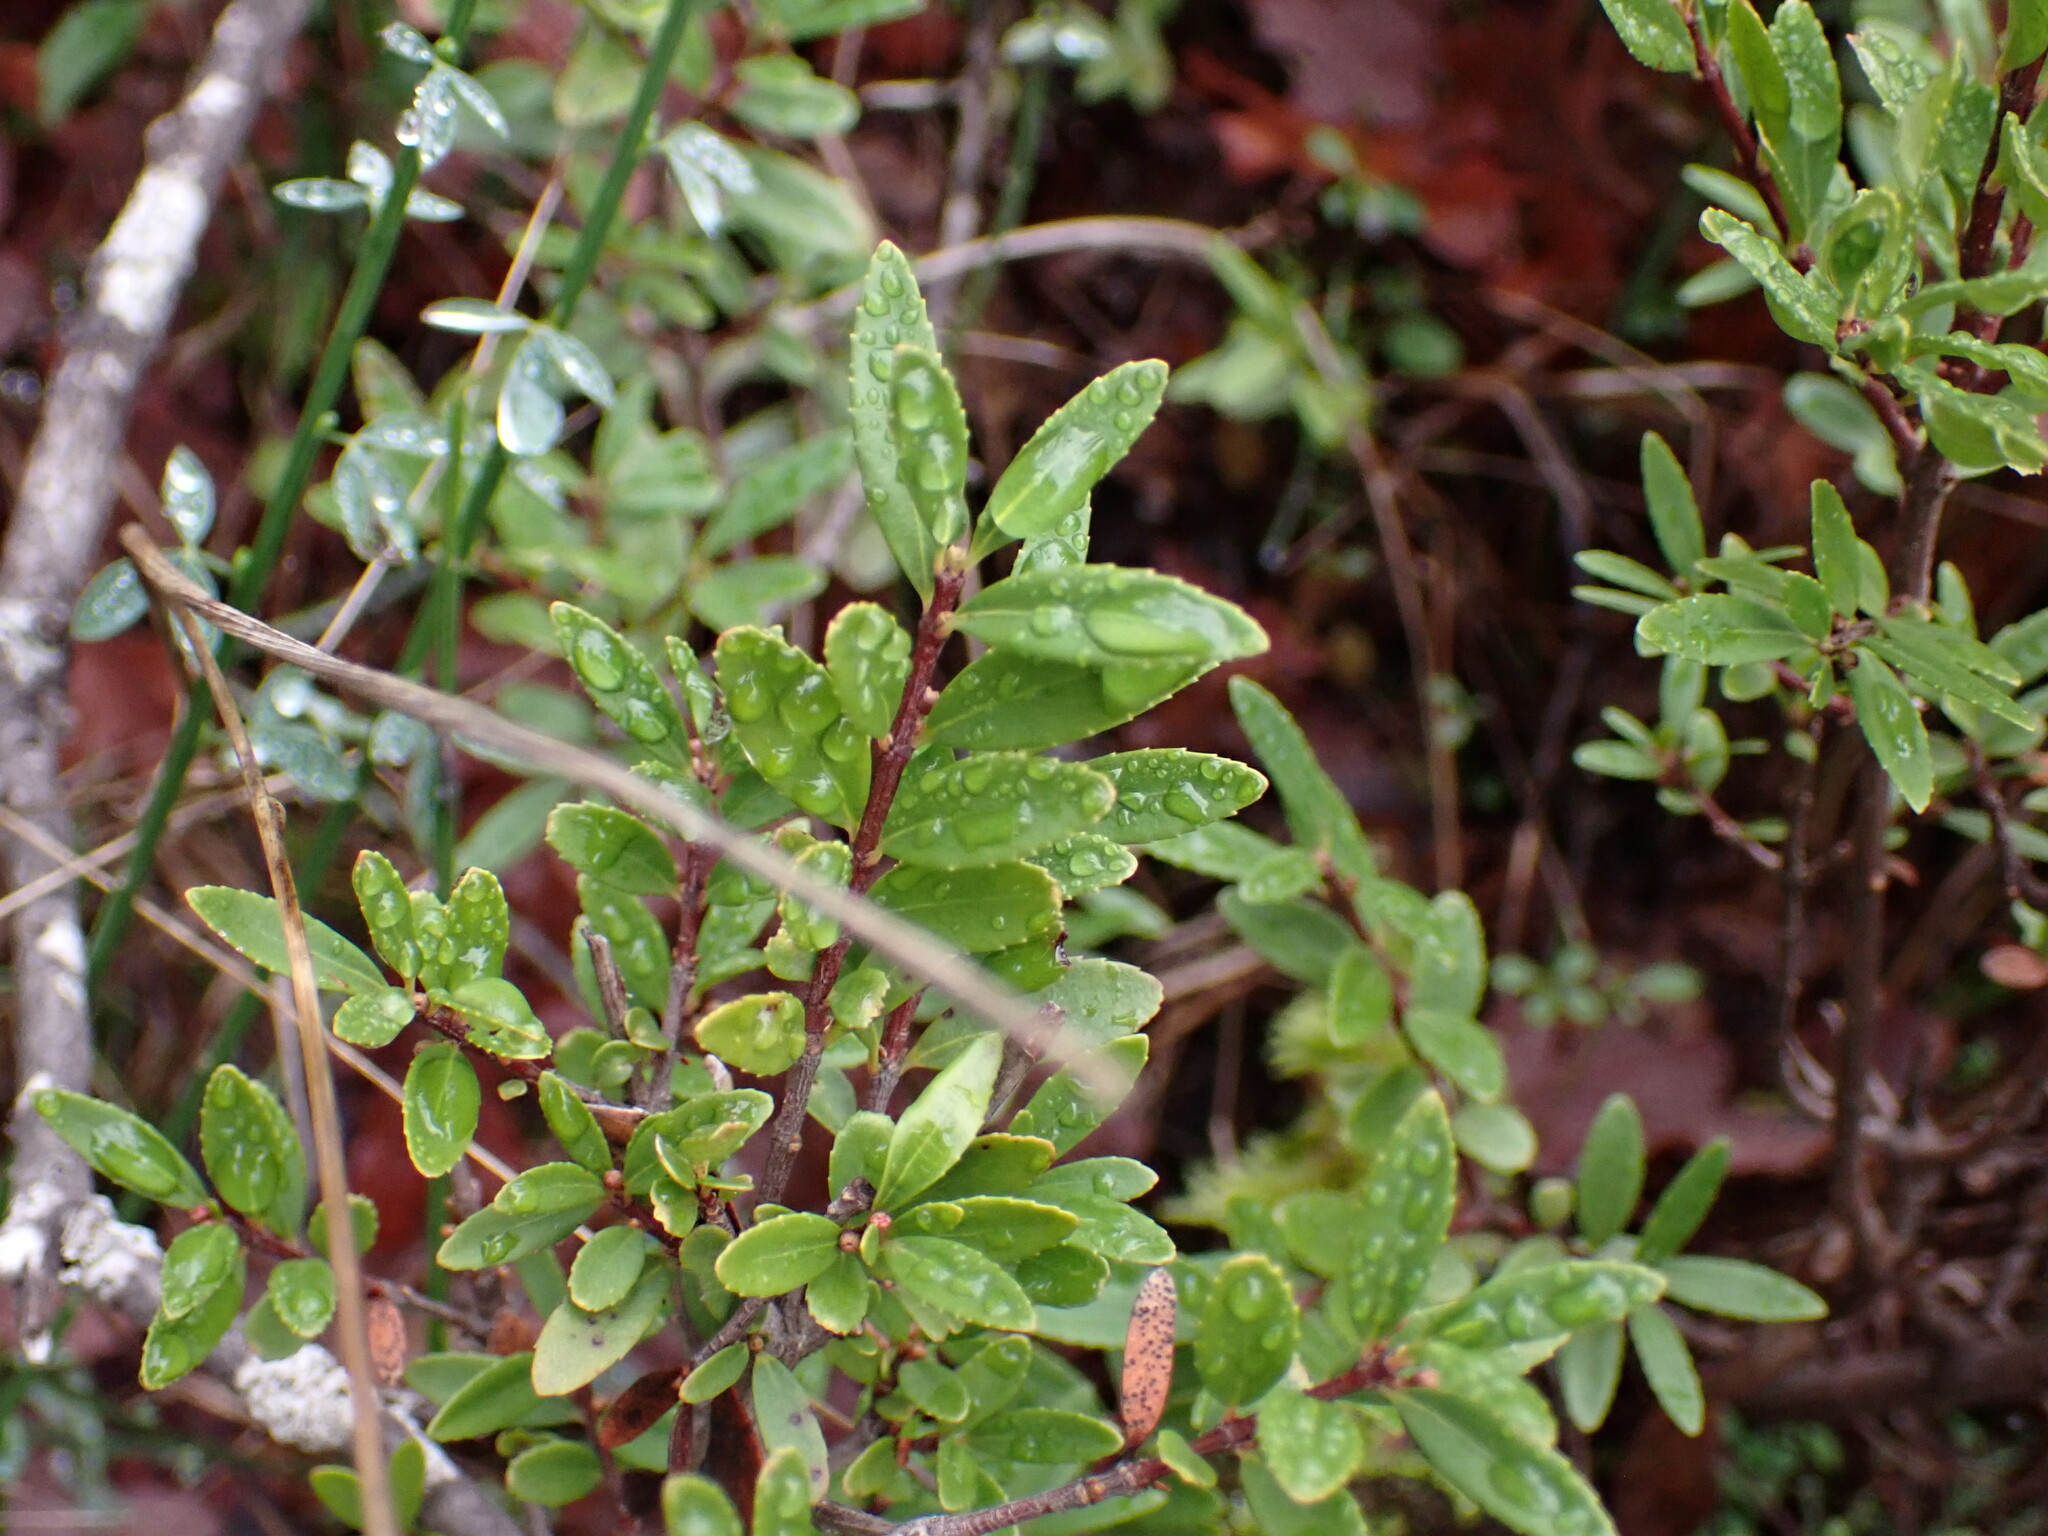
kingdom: Plantae
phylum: Tracheophyta
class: Magnoliopsida
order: Celastrales
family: Celastraceae
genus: Paxistima
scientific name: Paxistima myrsinites
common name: Mountain-lover
